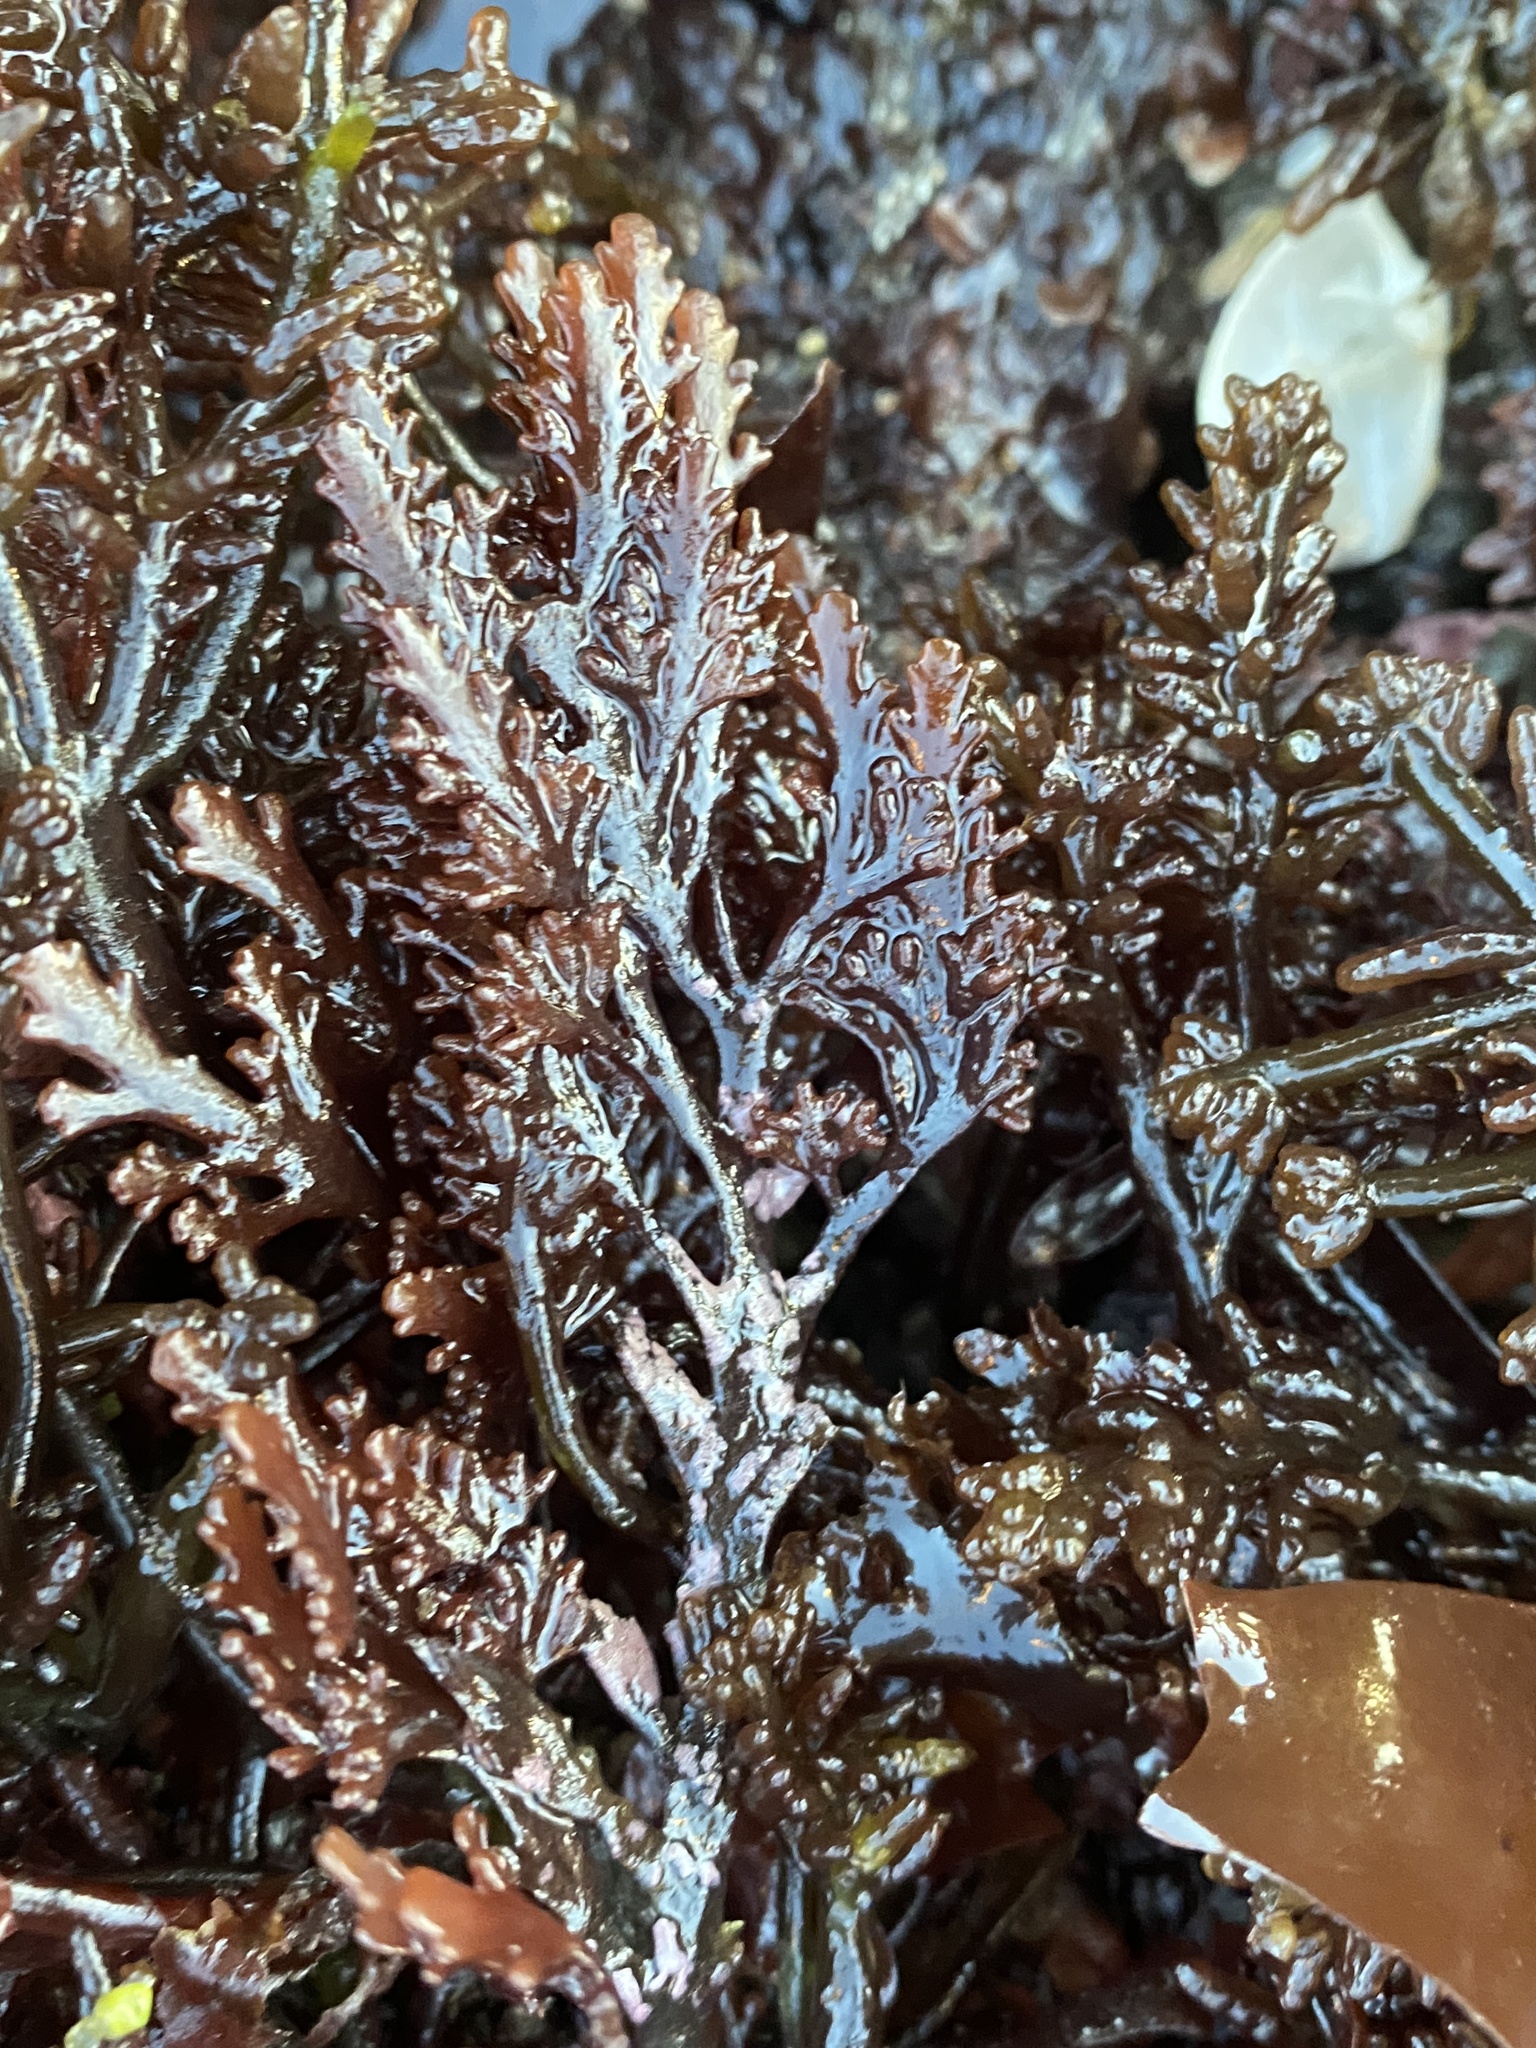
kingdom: Plantae
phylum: Rhodophyta
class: Florideophyceae
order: Ceramiales
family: Rhodomelaceae
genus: Osmundea
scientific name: Osmundea spectabilis
